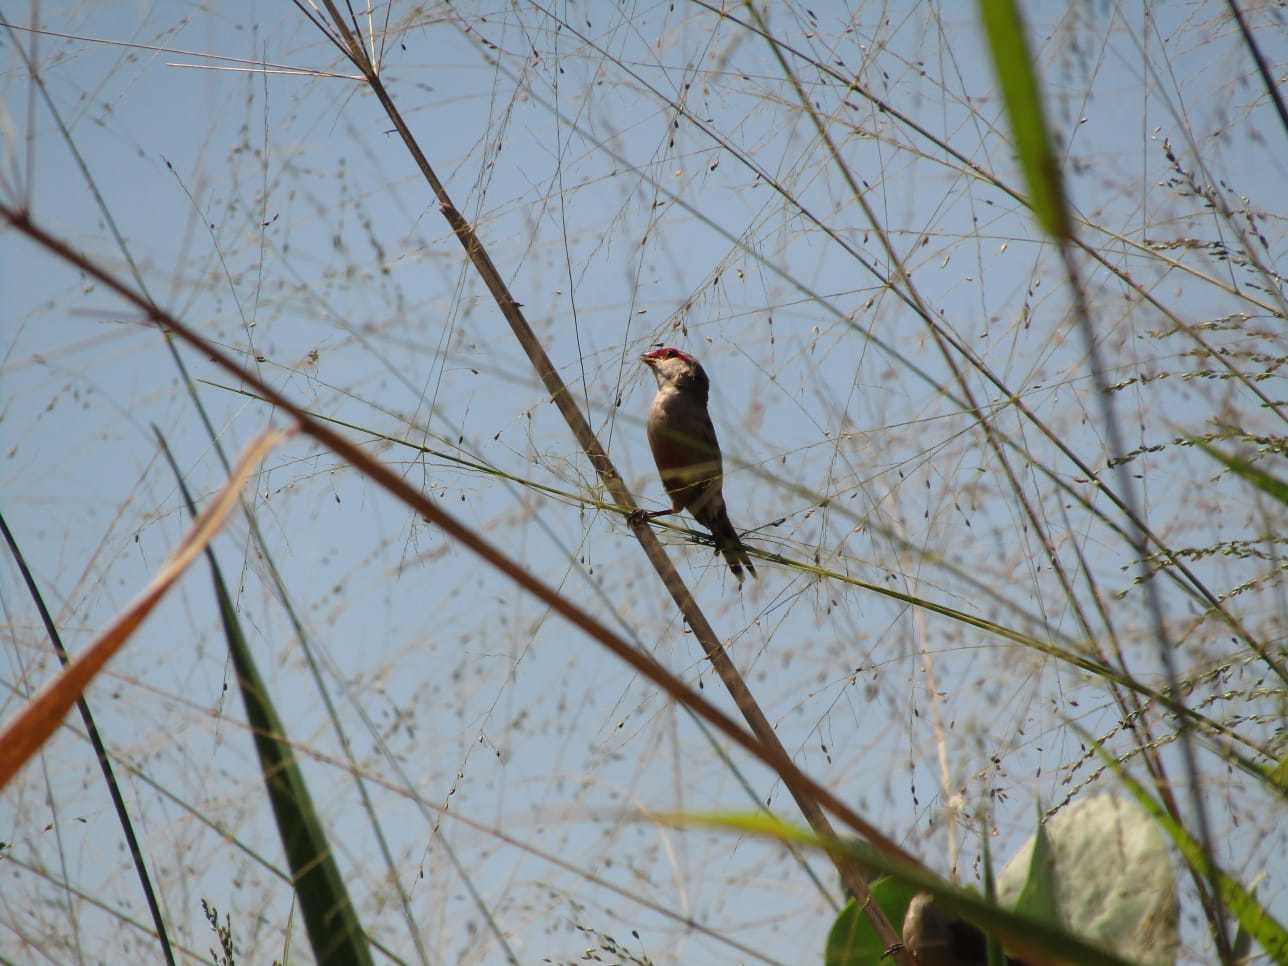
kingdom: Animalia
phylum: Chordata
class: Aves
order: Passeriformes
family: Estrildidae
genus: Estrilda
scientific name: Estrilda astrild
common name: Common waxbill
